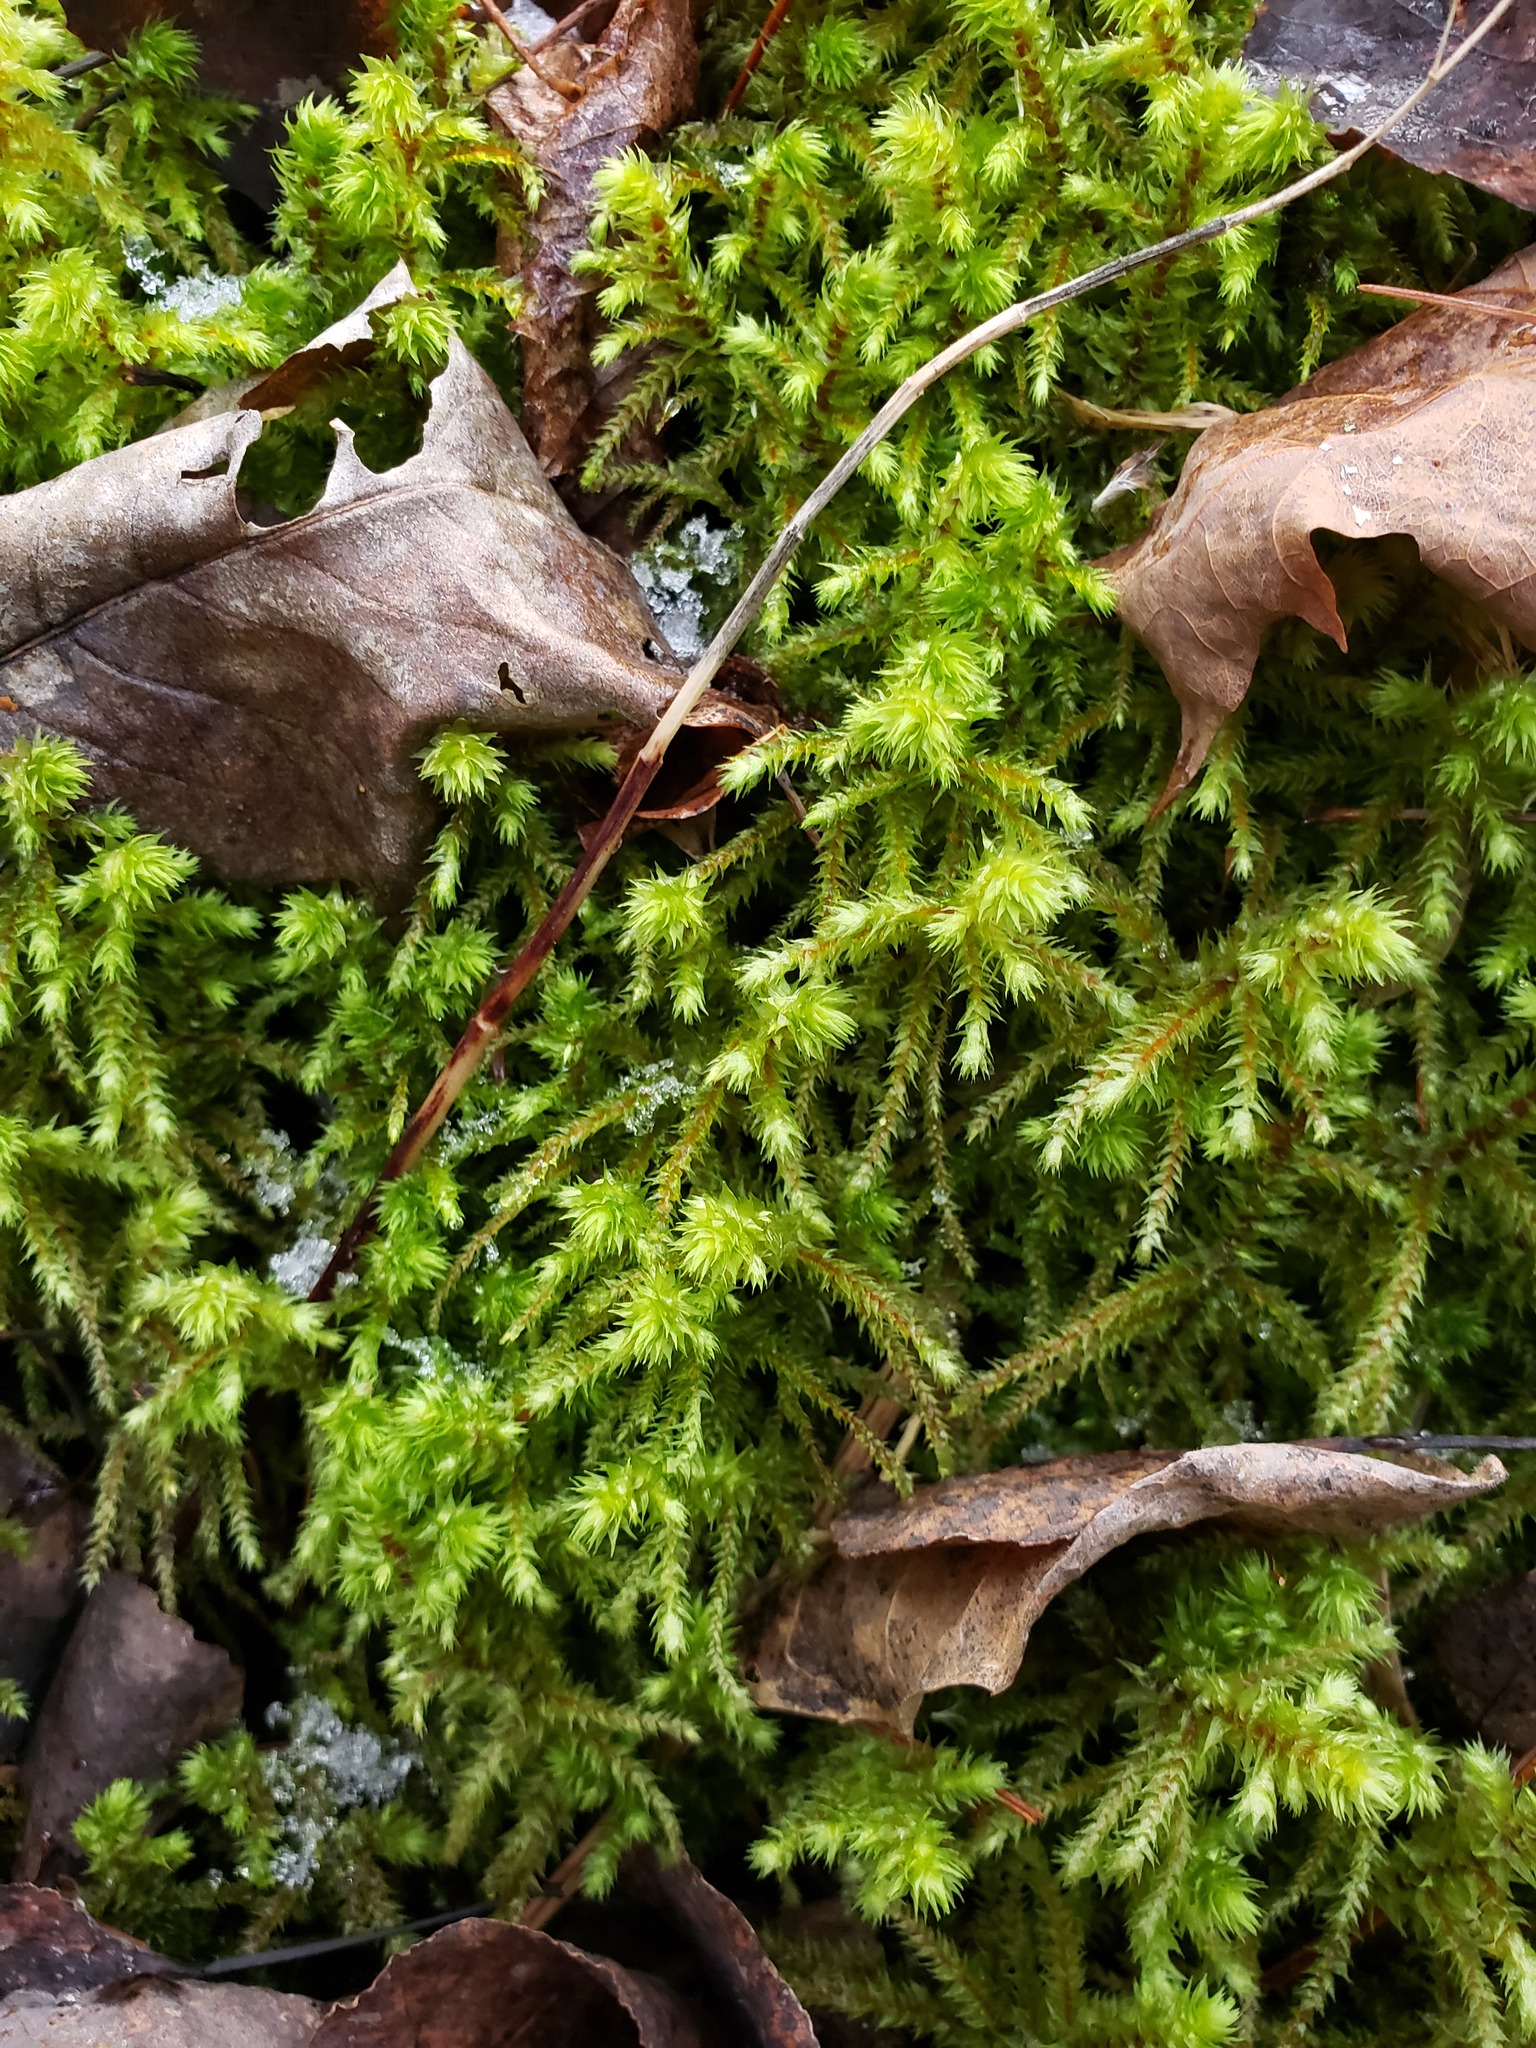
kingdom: Plantae
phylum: Bryophyta
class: Bryopsida
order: Hypnales
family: Hylocomiaceae
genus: Hylocomiadelphus
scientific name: Hylocomiadelphus triquetrus
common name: Rough goose neck moss
